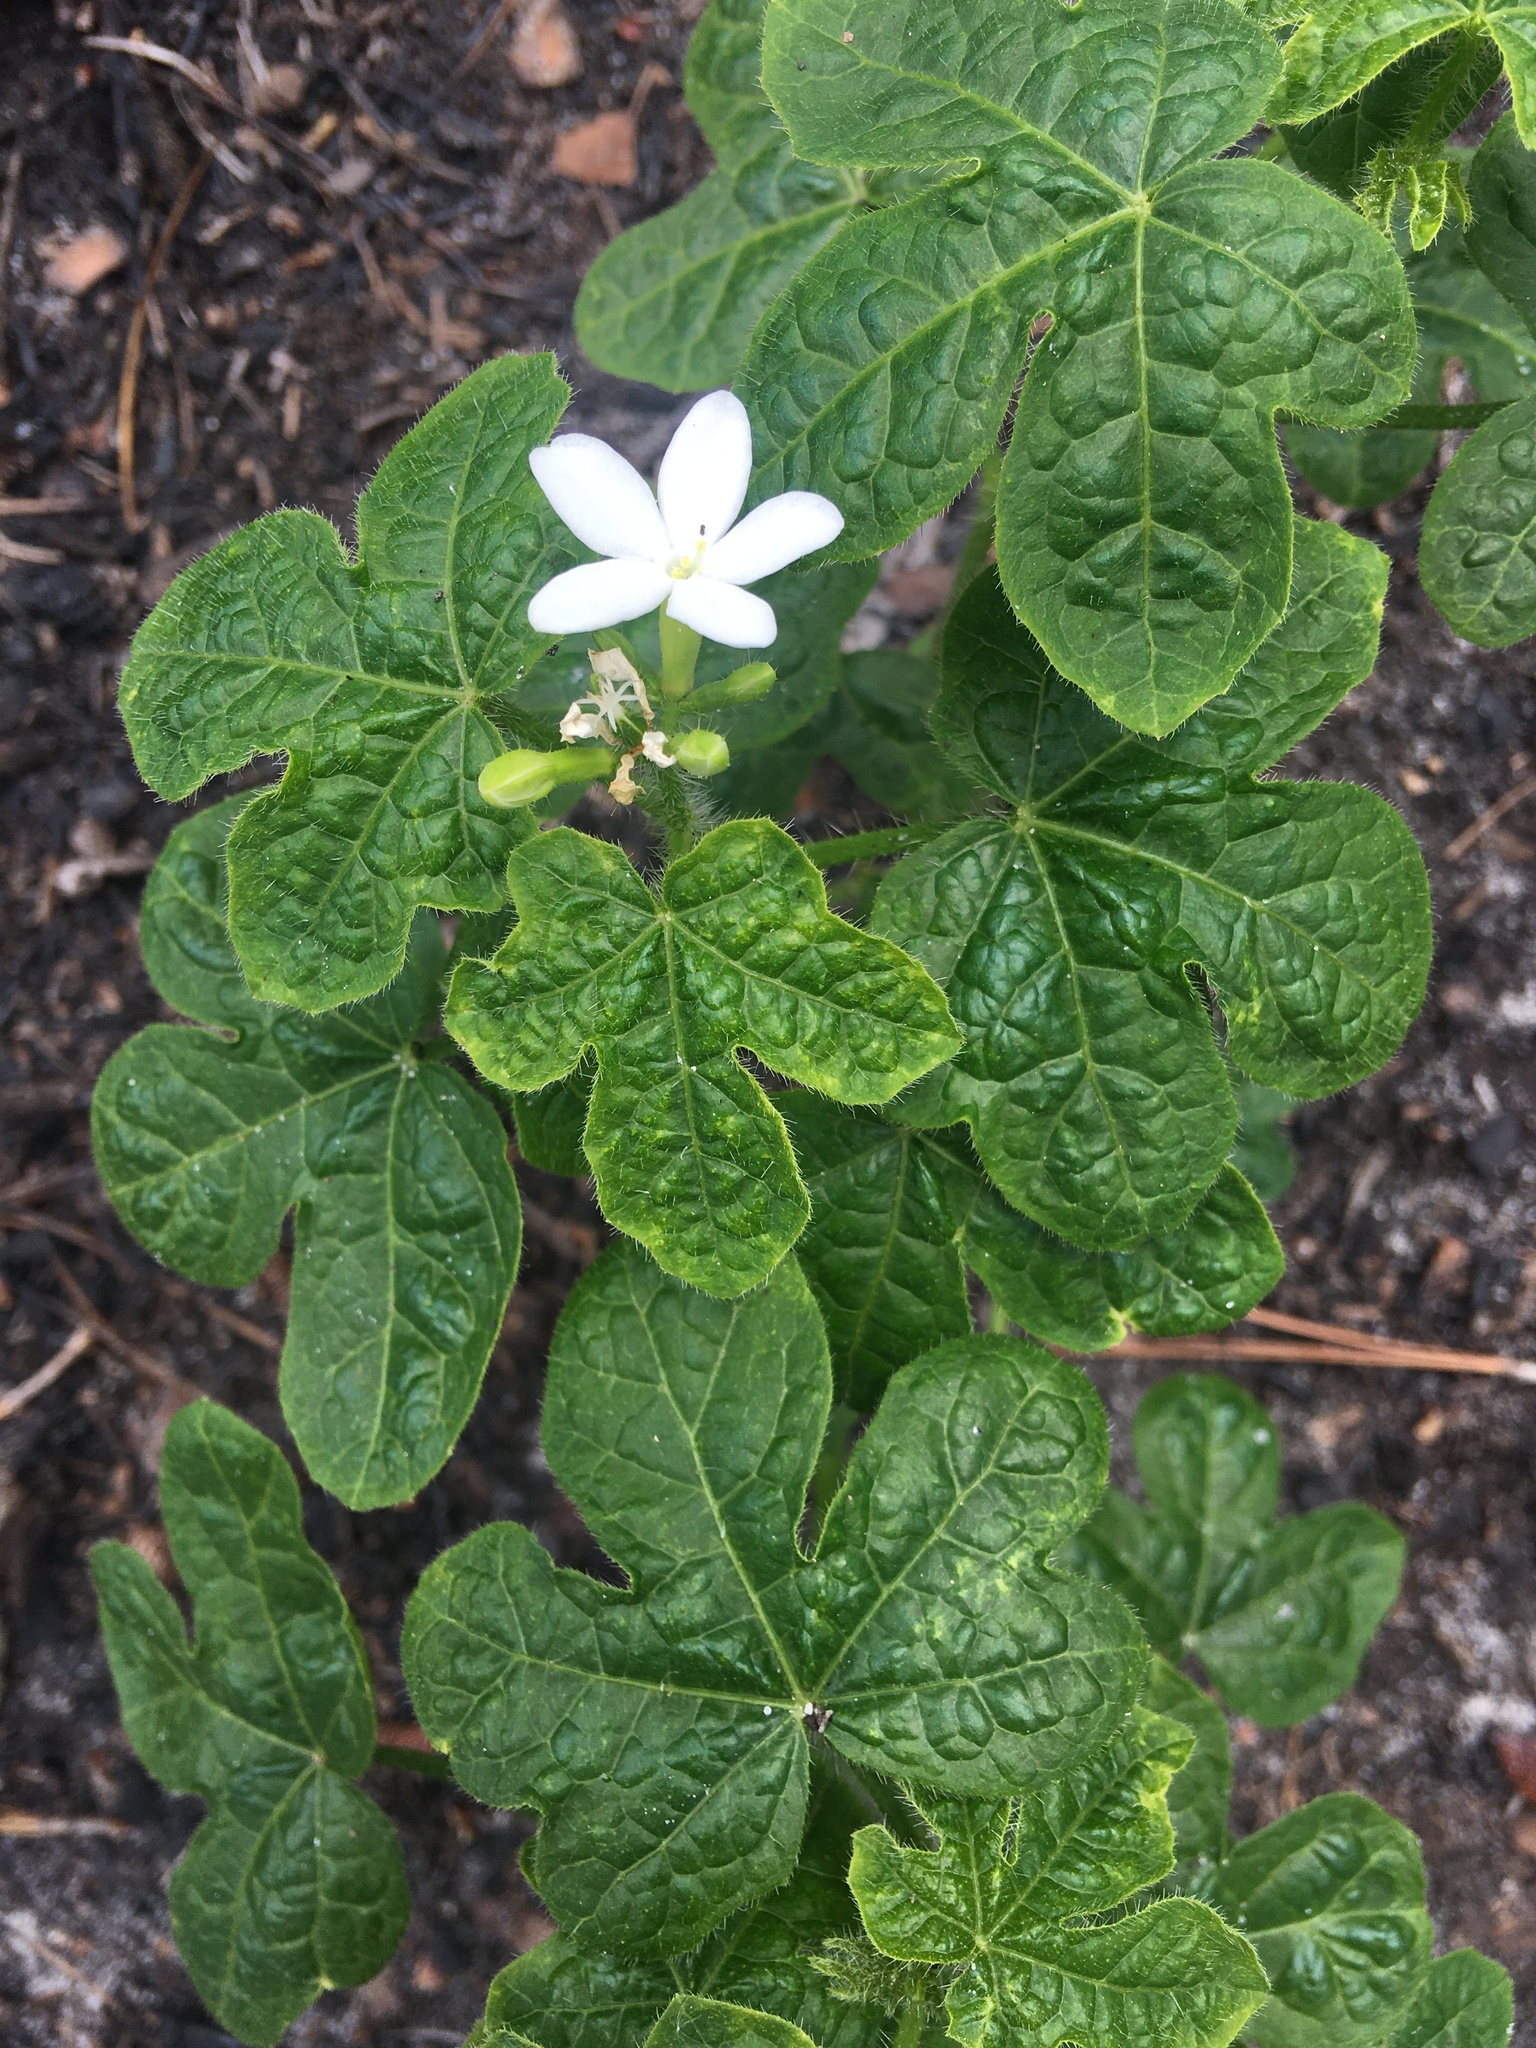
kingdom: Plantae
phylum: Tracheophyta
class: Magnoliopsida
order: Malpighiales
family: Euphorbiaceae
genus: Cnidoscolus
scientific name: Cnidoscolus stimulosus
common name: Bull-nettle
